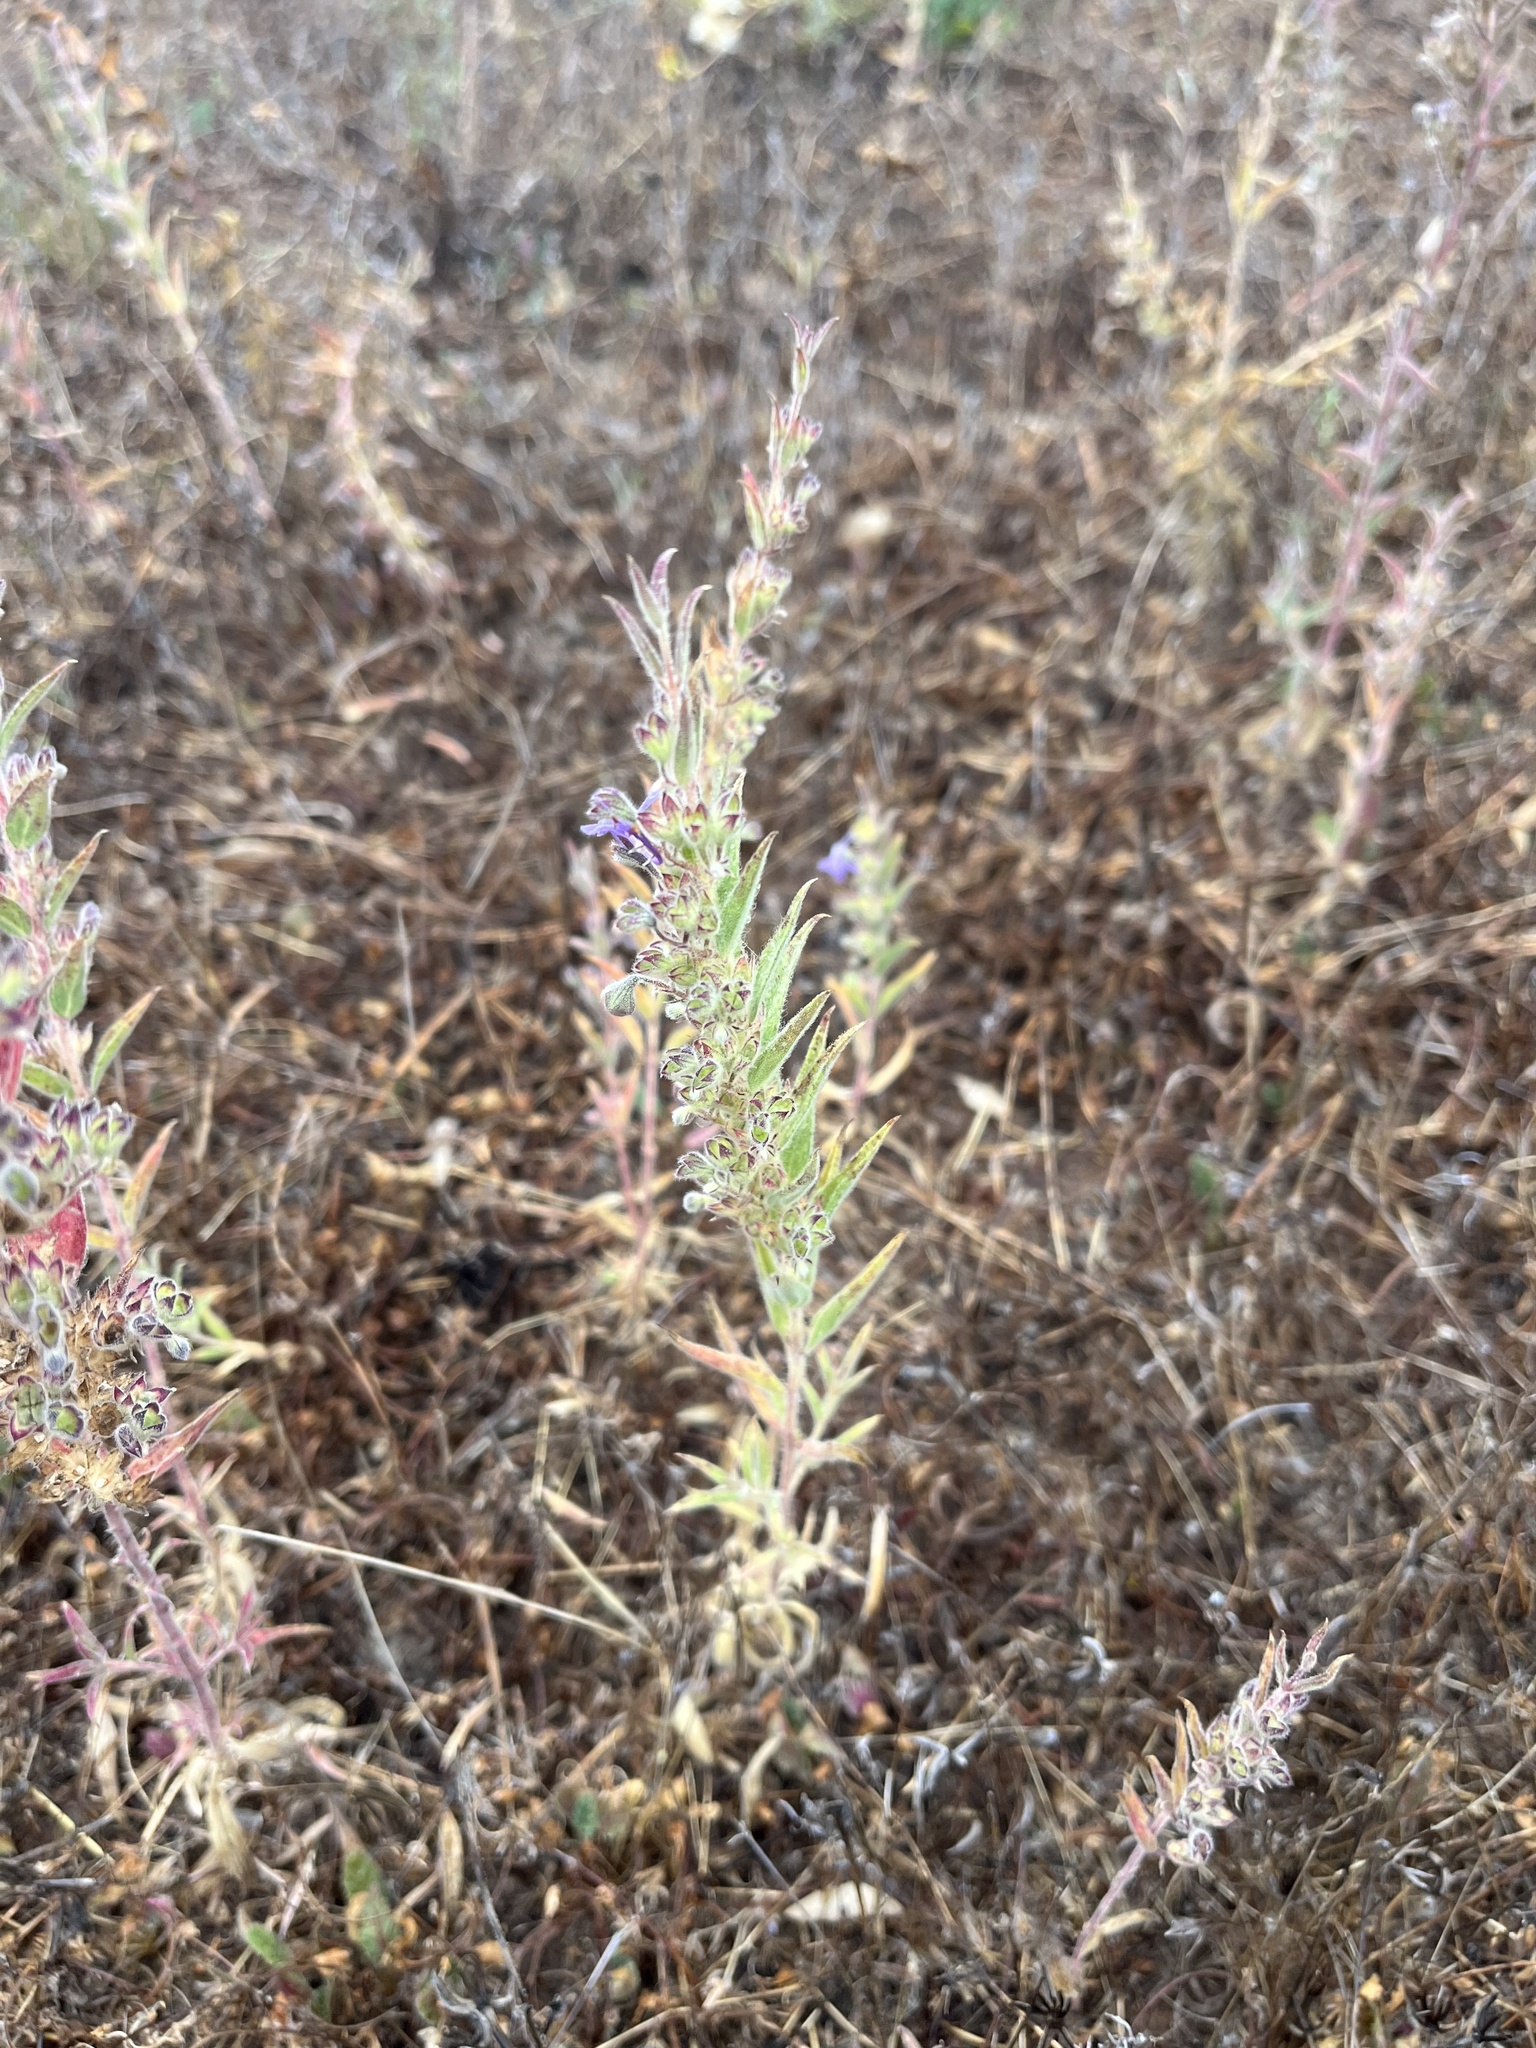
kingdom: Plantae
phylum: Tracheophyta
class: Magnoliopsida
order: Lamiales
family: Lamiaceae
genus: Trichostema
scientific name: Trichostema lanceolatum
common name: Vinegar-weed
